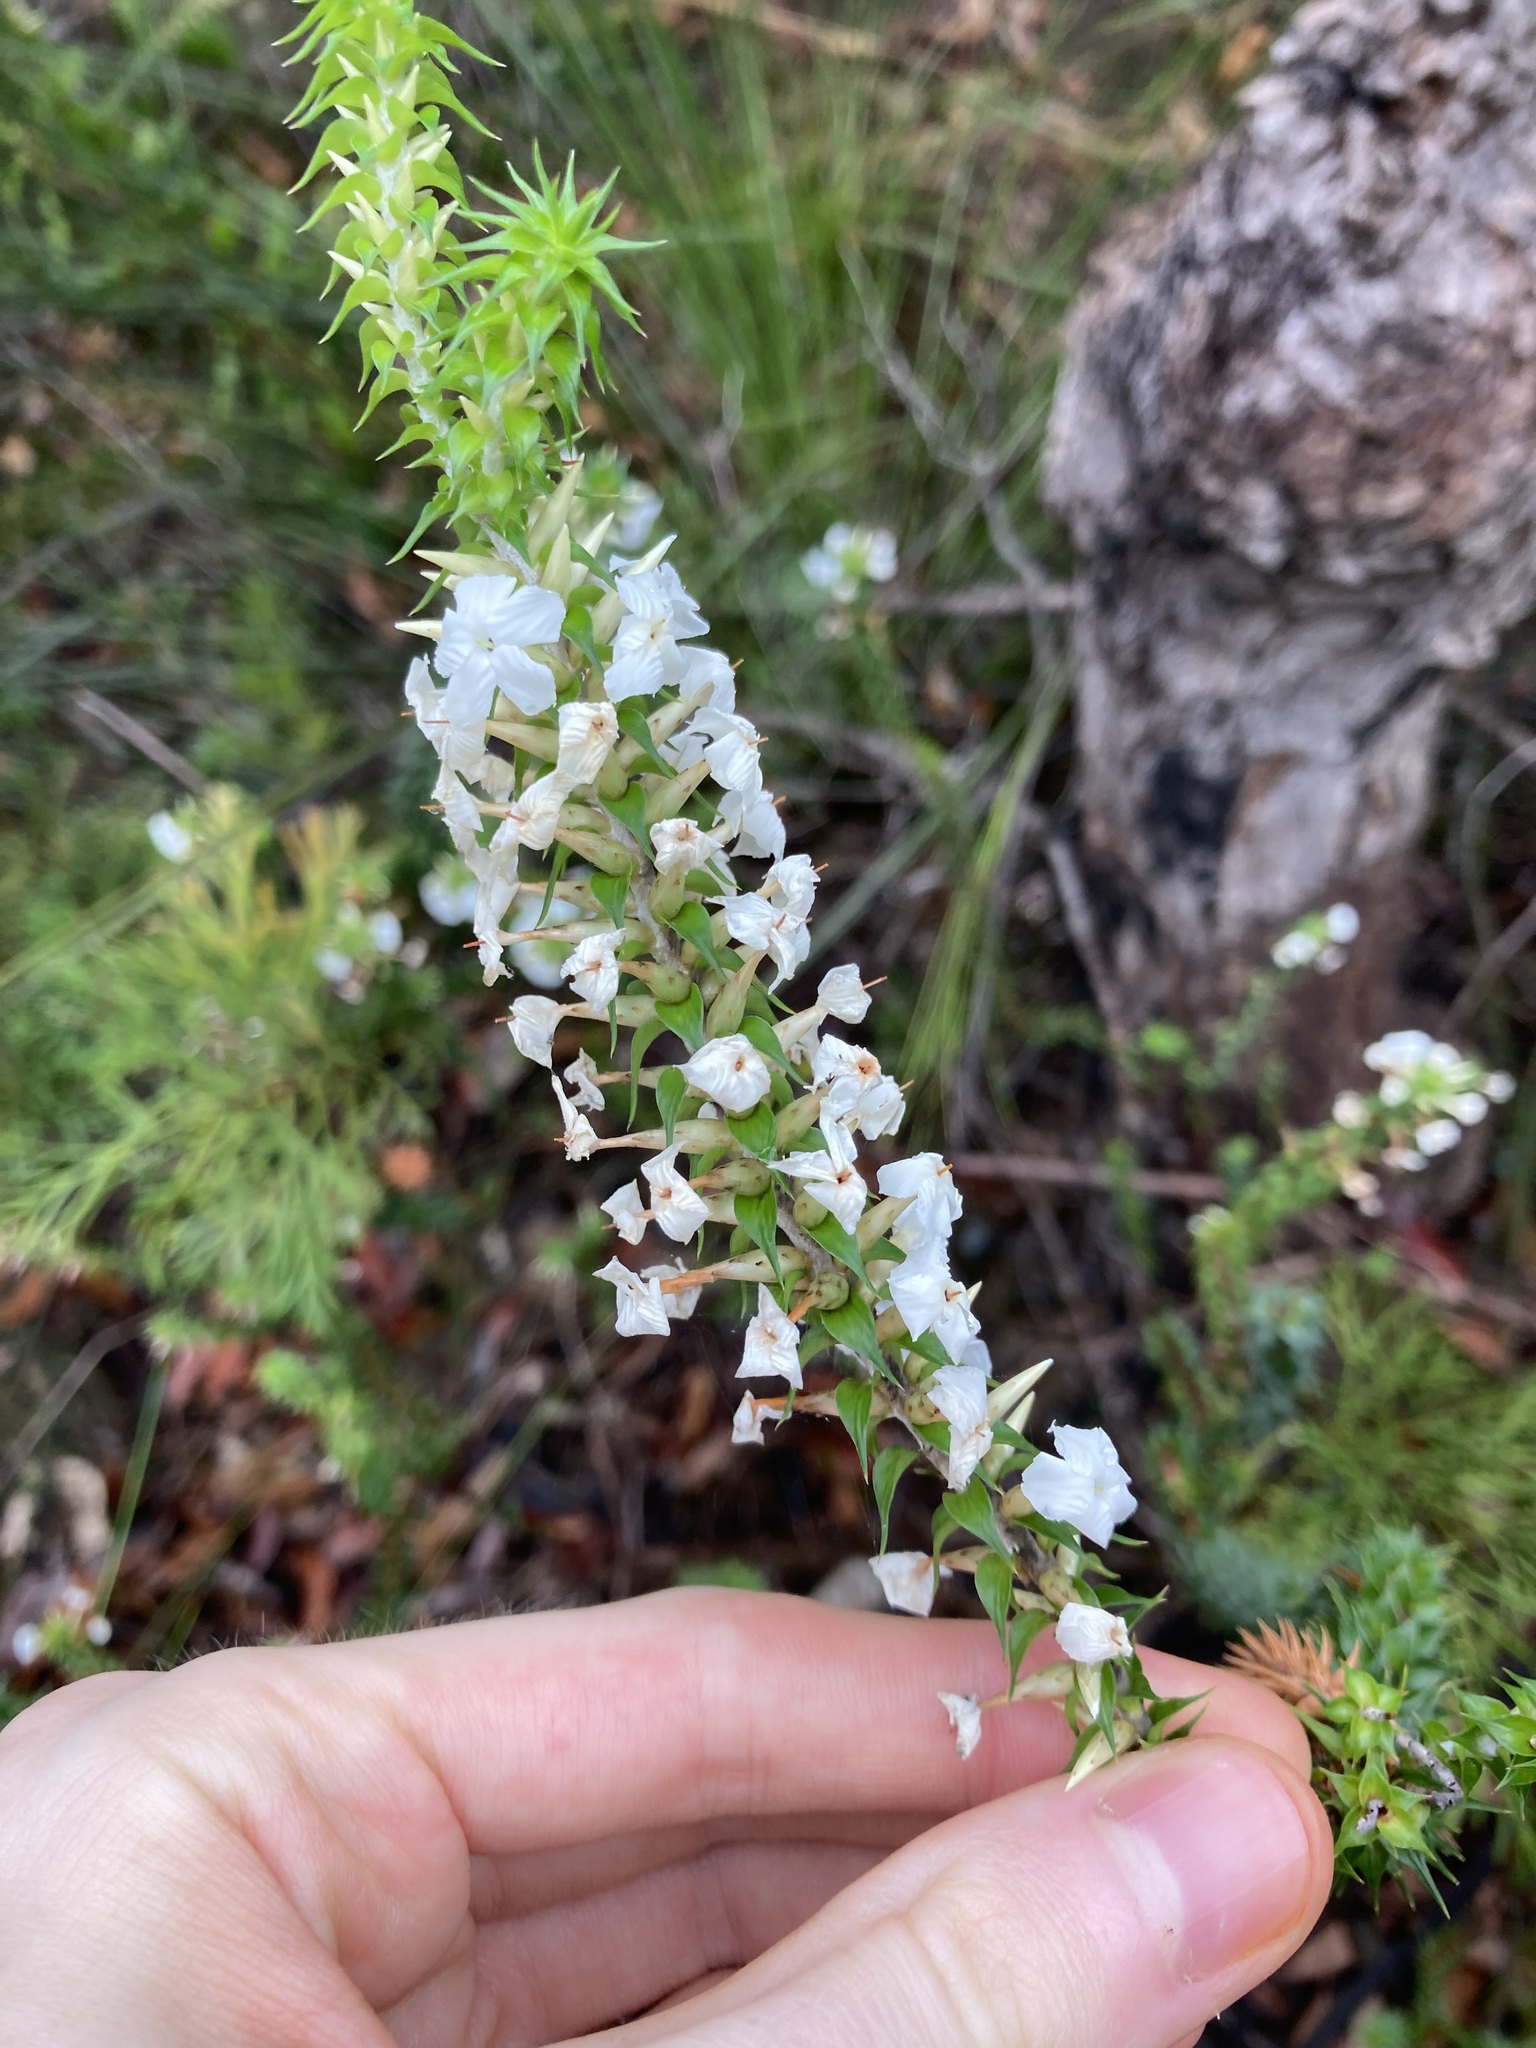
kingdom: Plantae
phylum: Tracheophyta
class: Magnoliopsida
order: Ericales
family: Ericaceae
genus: Woollsia
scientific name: Woollsia pungens
